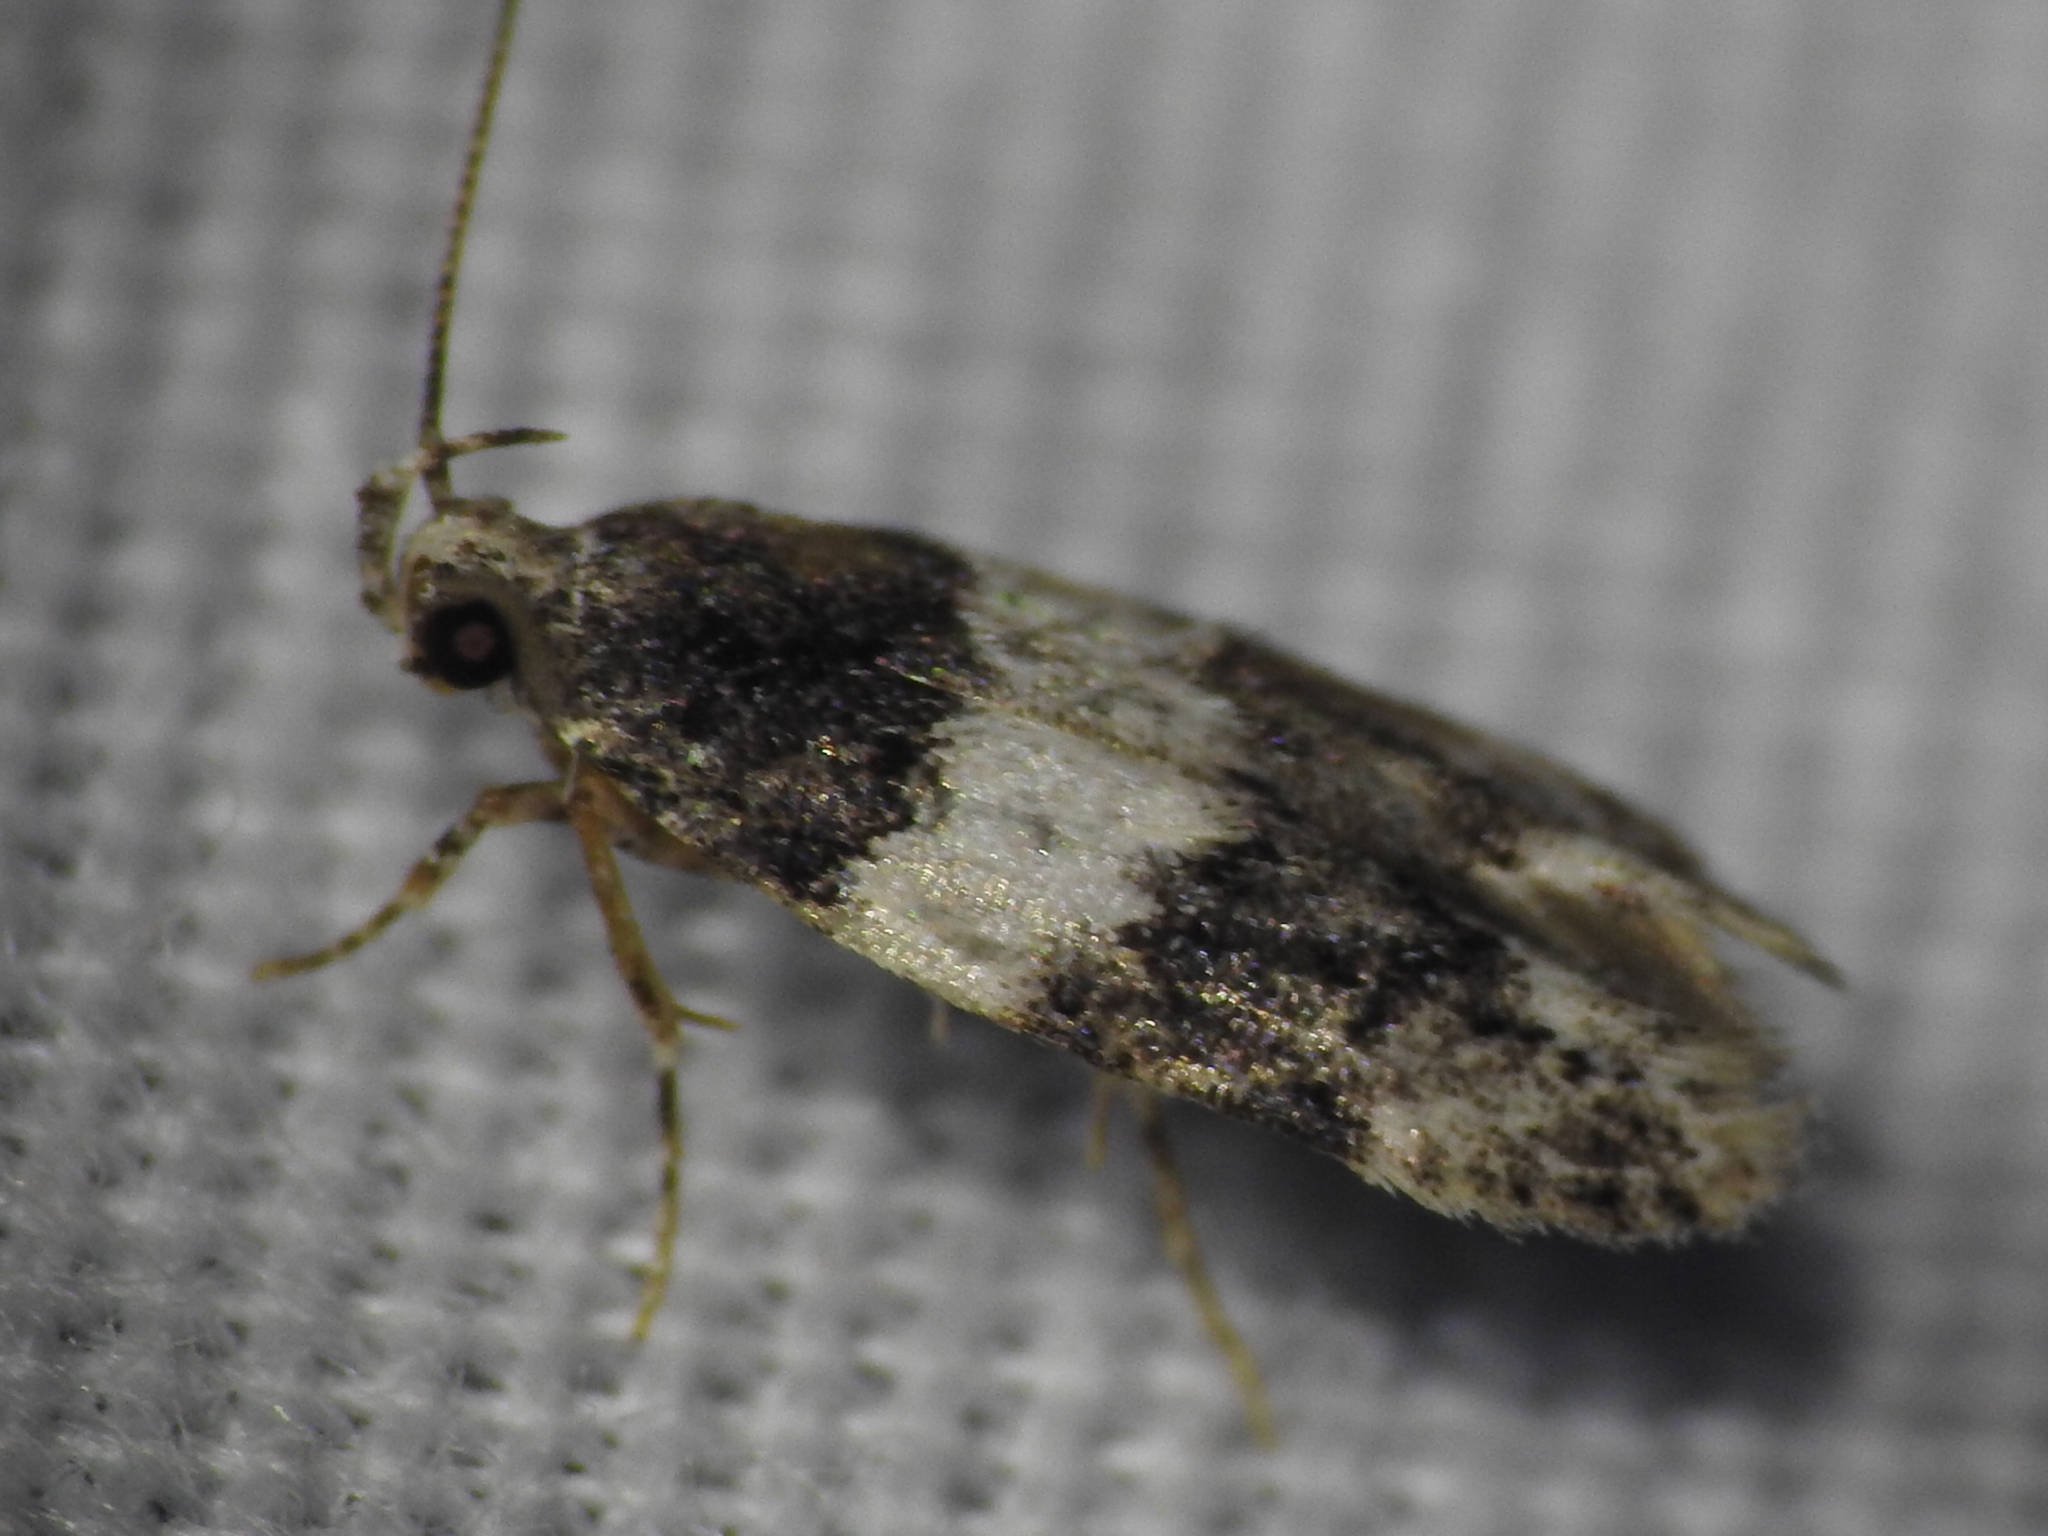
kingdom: Animalia
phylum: Arthropoda
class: Insecta
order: Lepidoptera
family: Gelechiidae
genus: Pubitelphusa
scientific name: Pubitelphusa latifasciella
